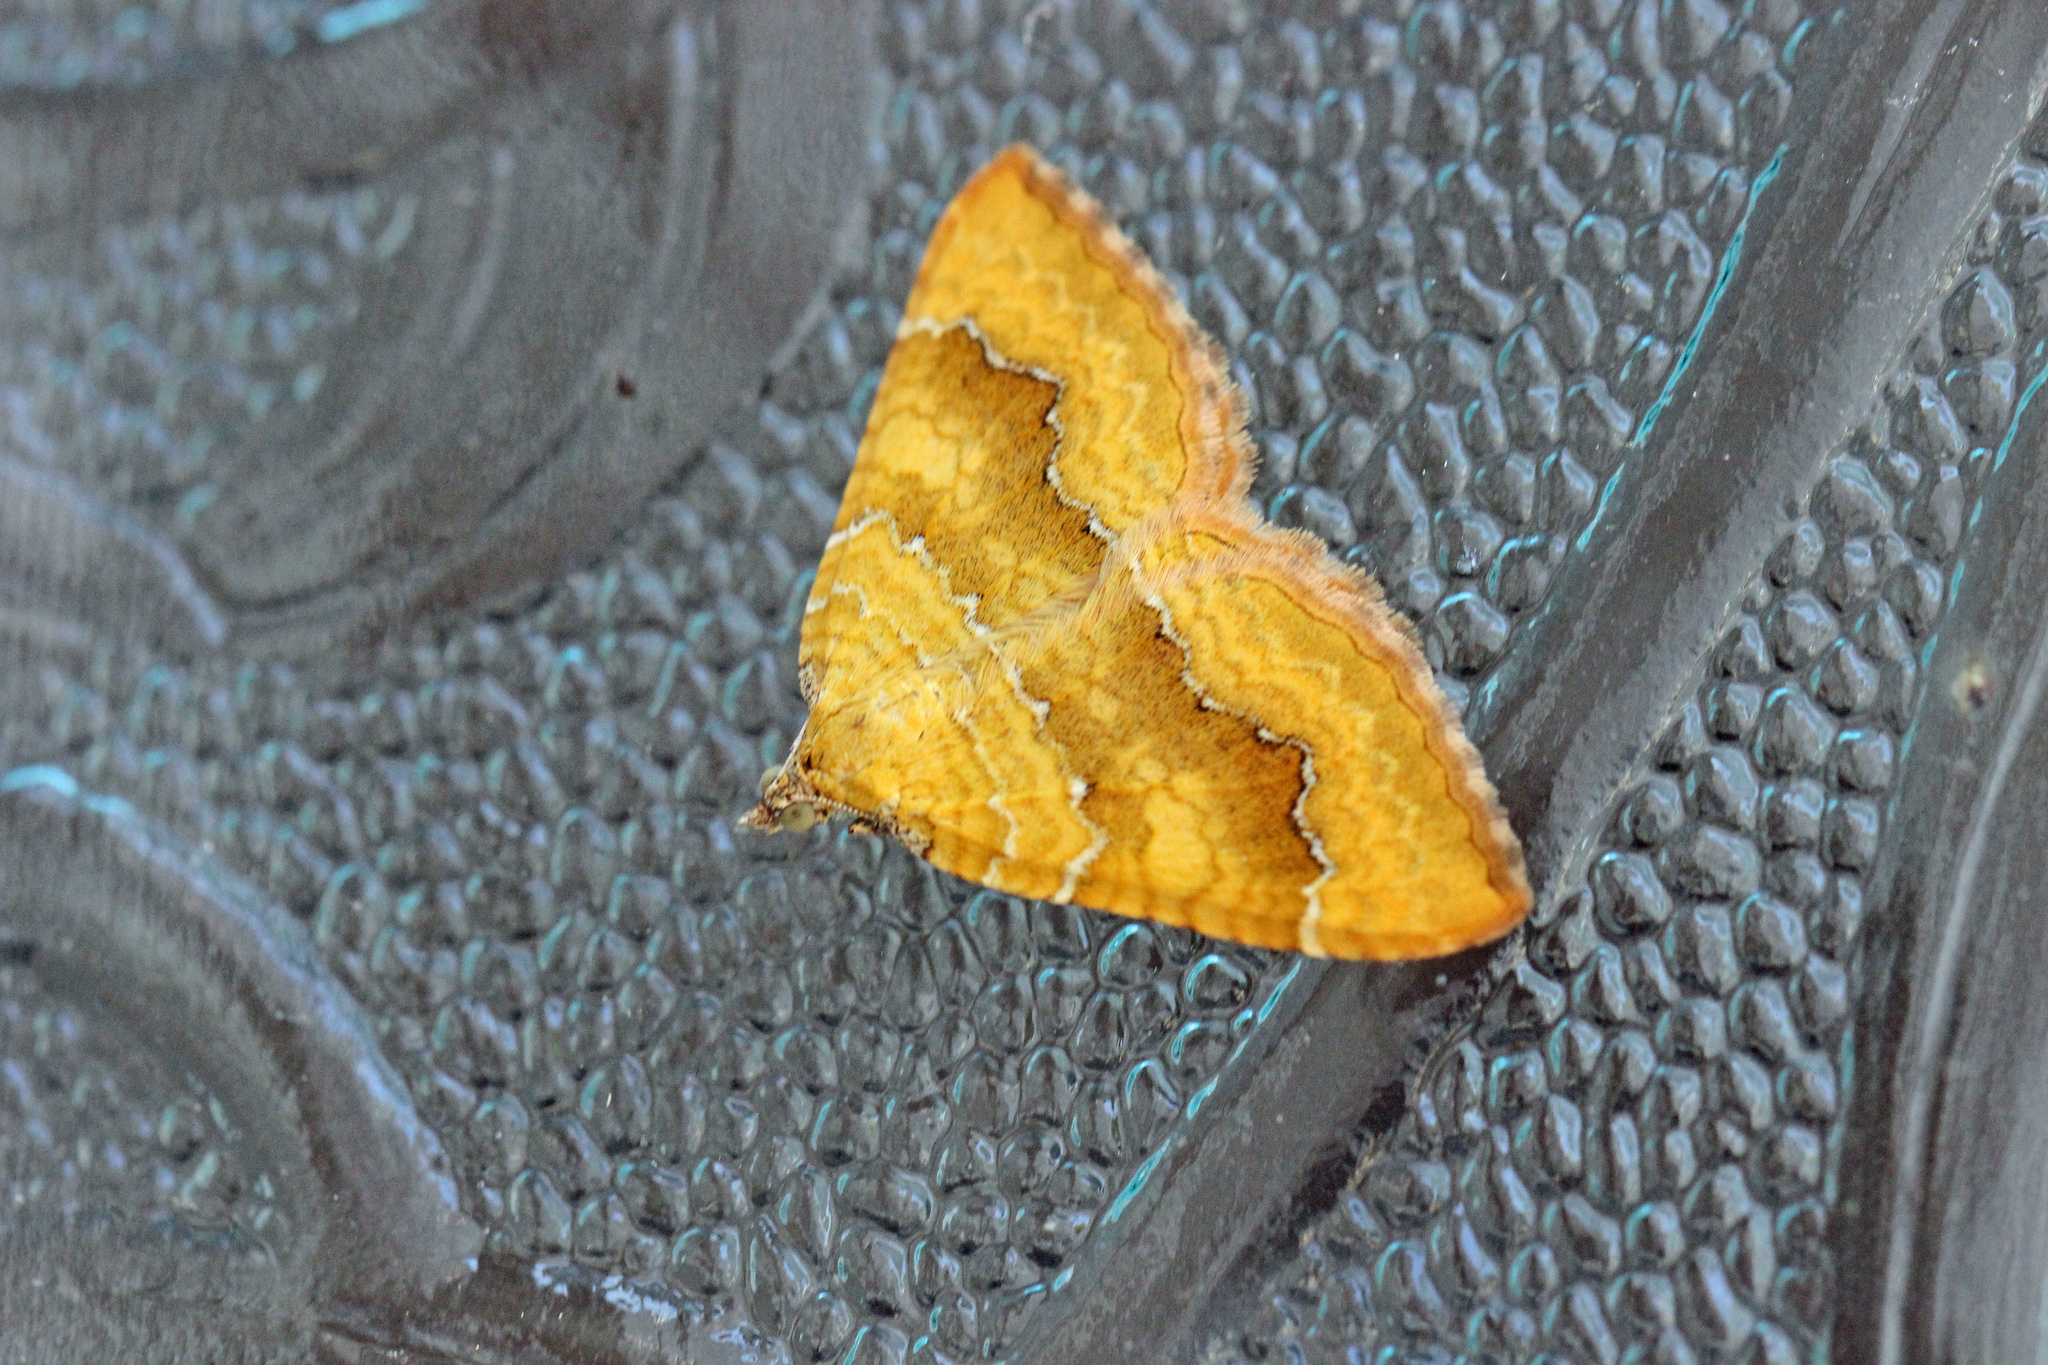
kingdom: Animalia
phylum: Arthropoda
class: Insecta
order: Lepidoptera
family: Geometridae
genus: Camptogramma
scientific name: Camptogramma bilineata
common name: Yellow shell
